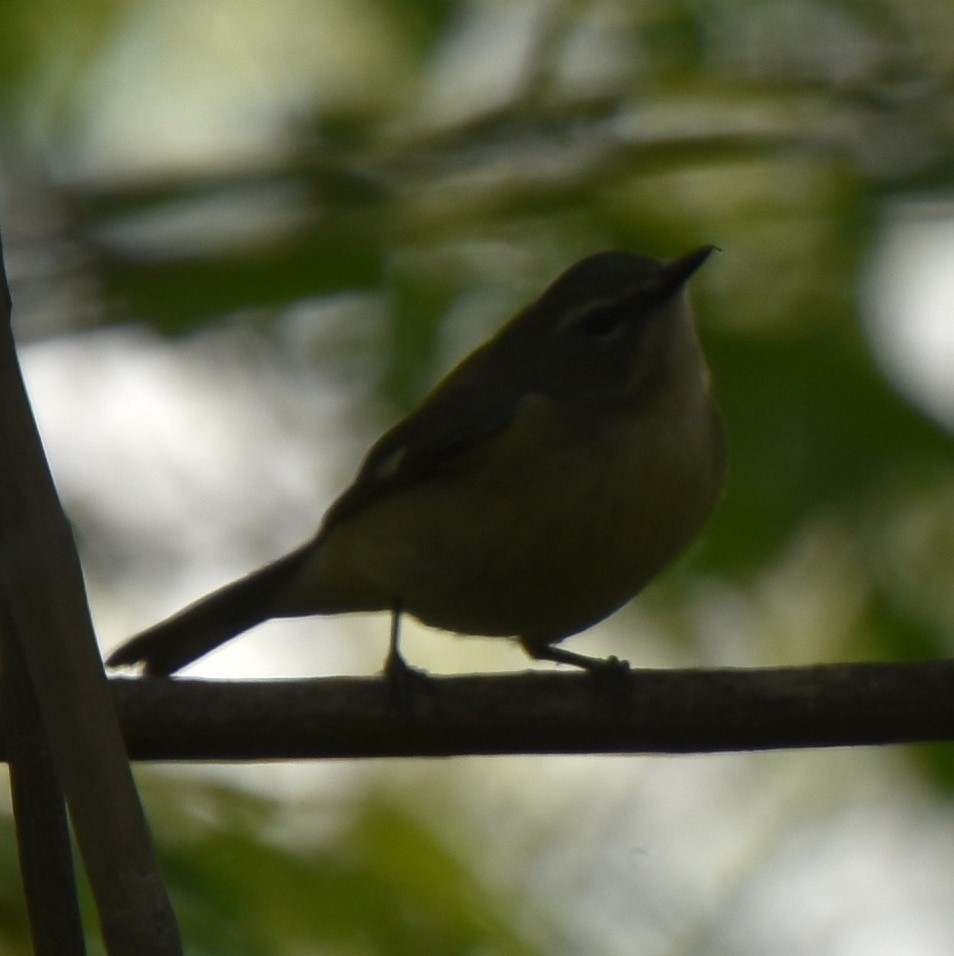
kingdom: Animalia
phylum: Chordata
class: Aves
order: Passeriformes
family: Parulidae
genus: Setophaga
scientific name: Setophaga caerulescens
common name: Black-throated blue warbler
